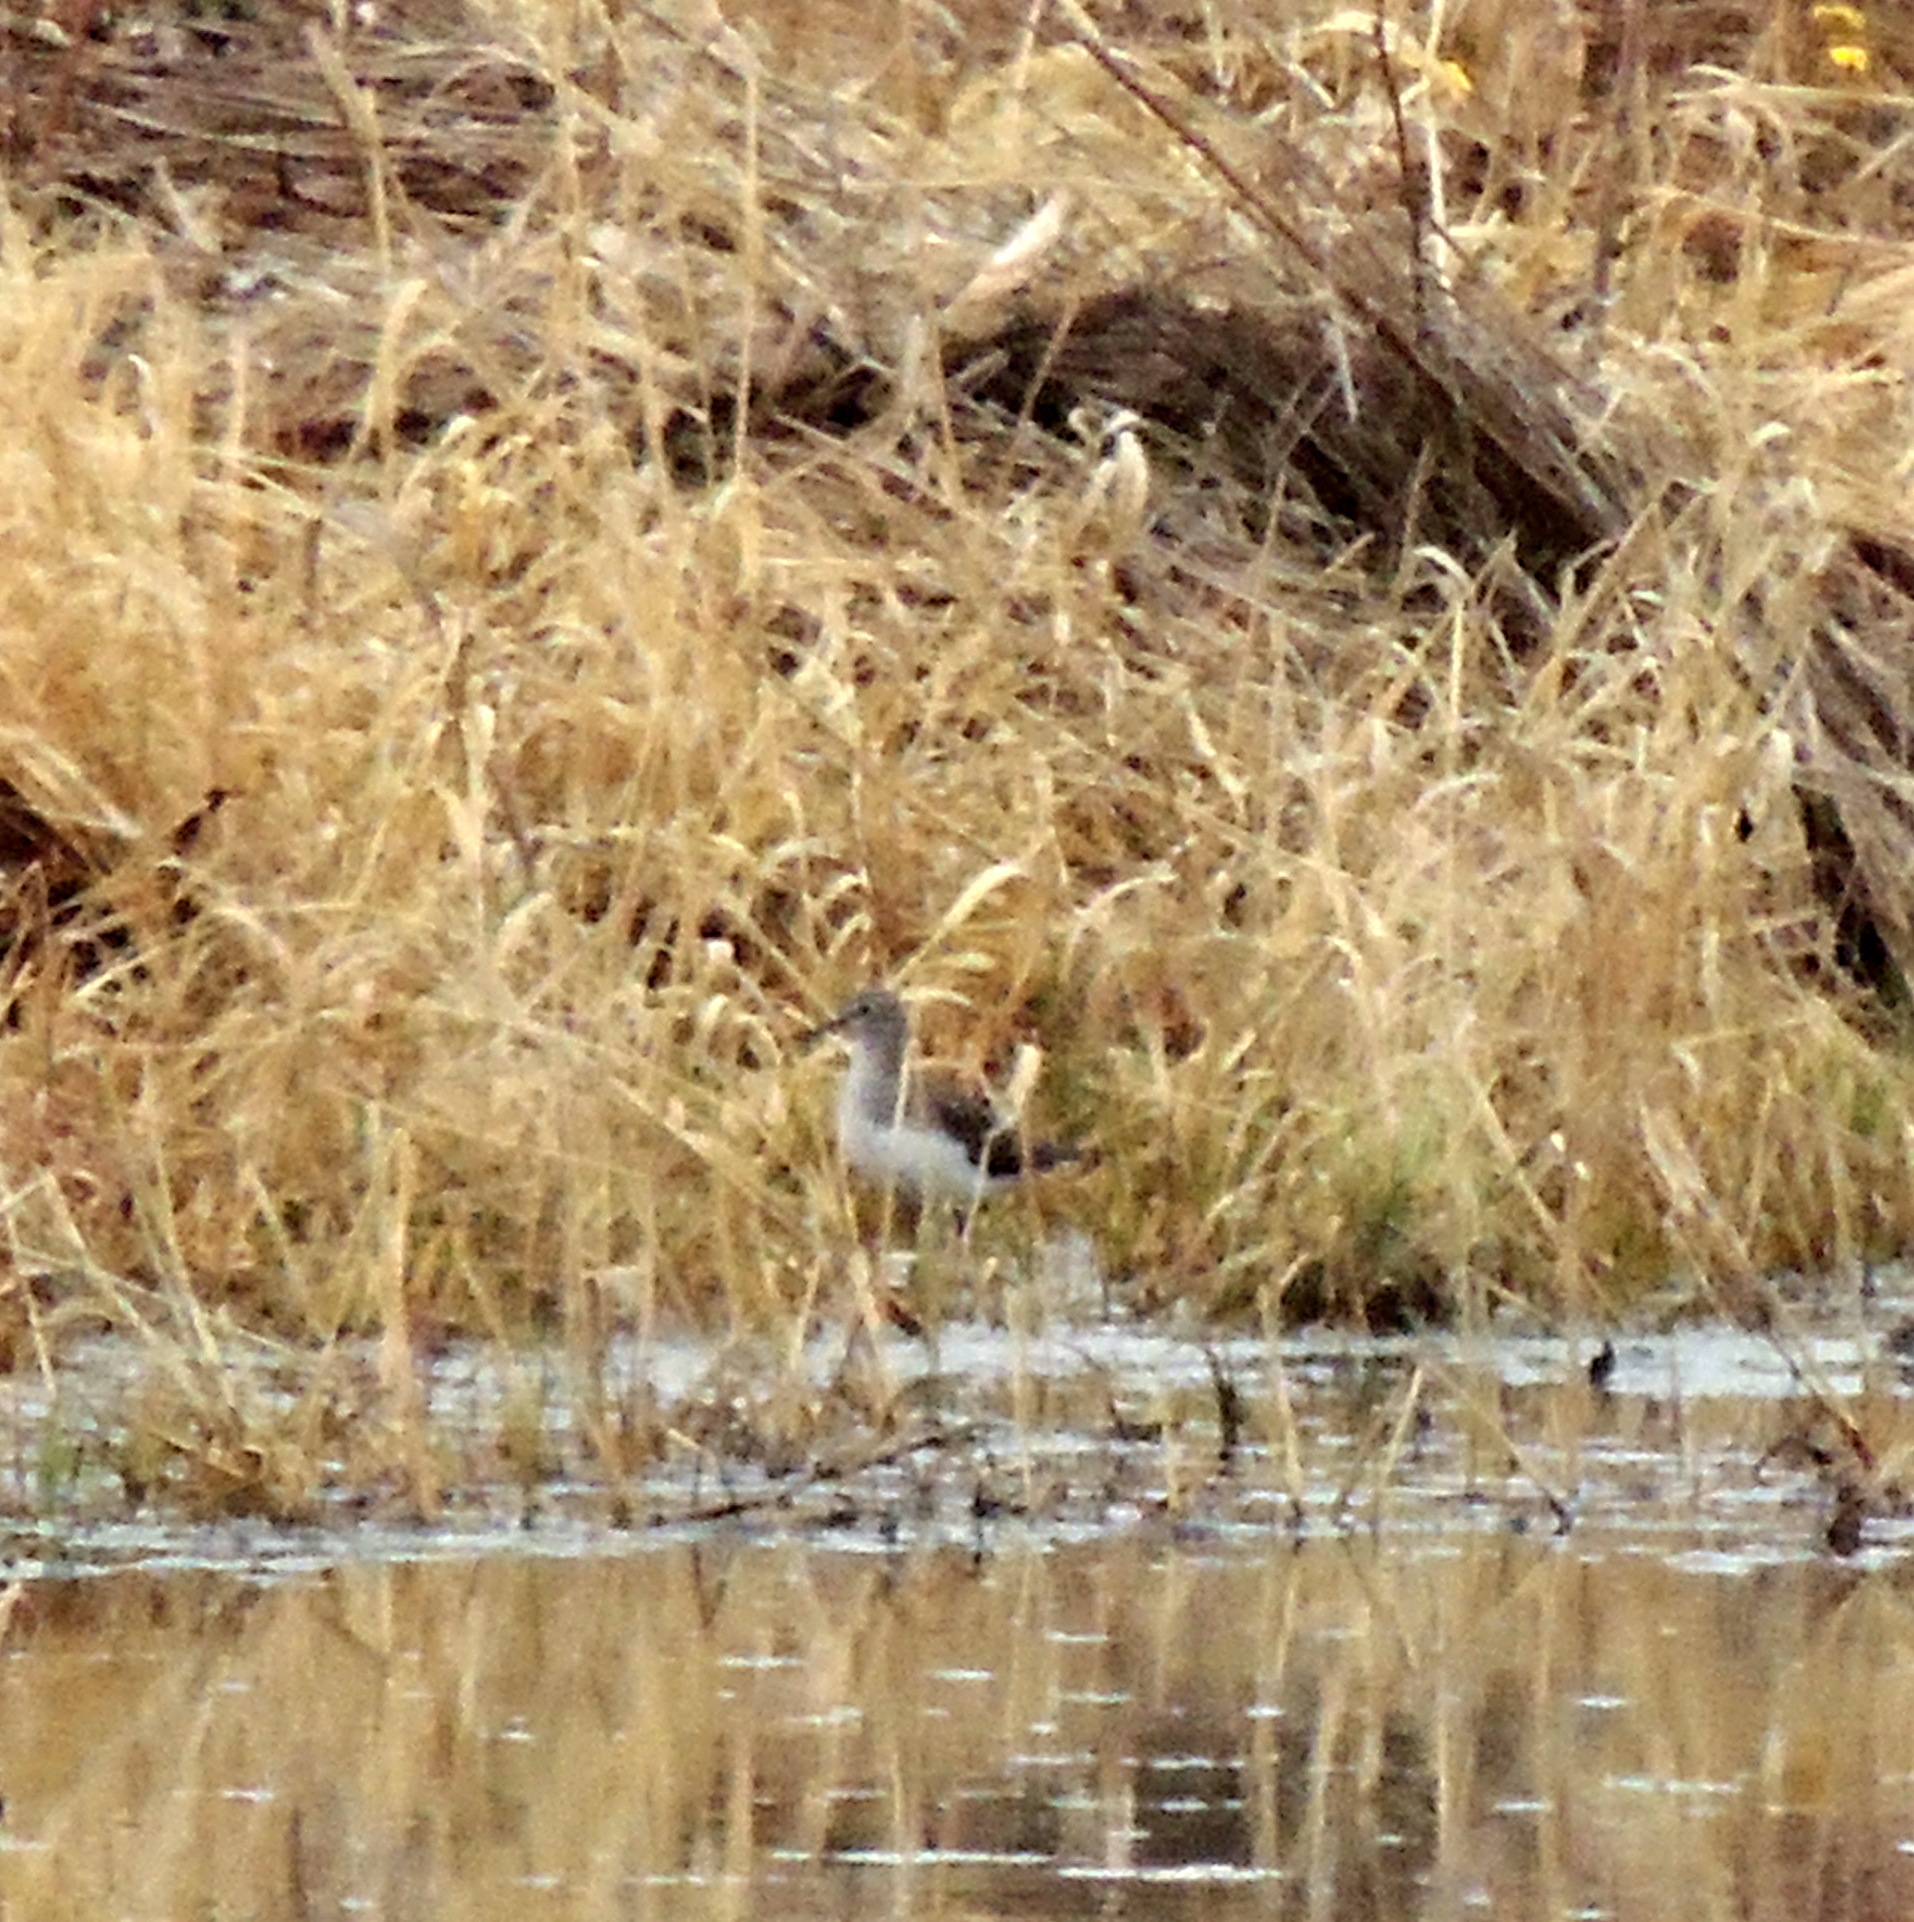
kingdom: Animalia
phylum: Chordata
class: Aves
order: Charadriiformes
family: Scolopacidae
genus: Tringa
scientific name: Tringa ochropus
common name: Green sandpiper
